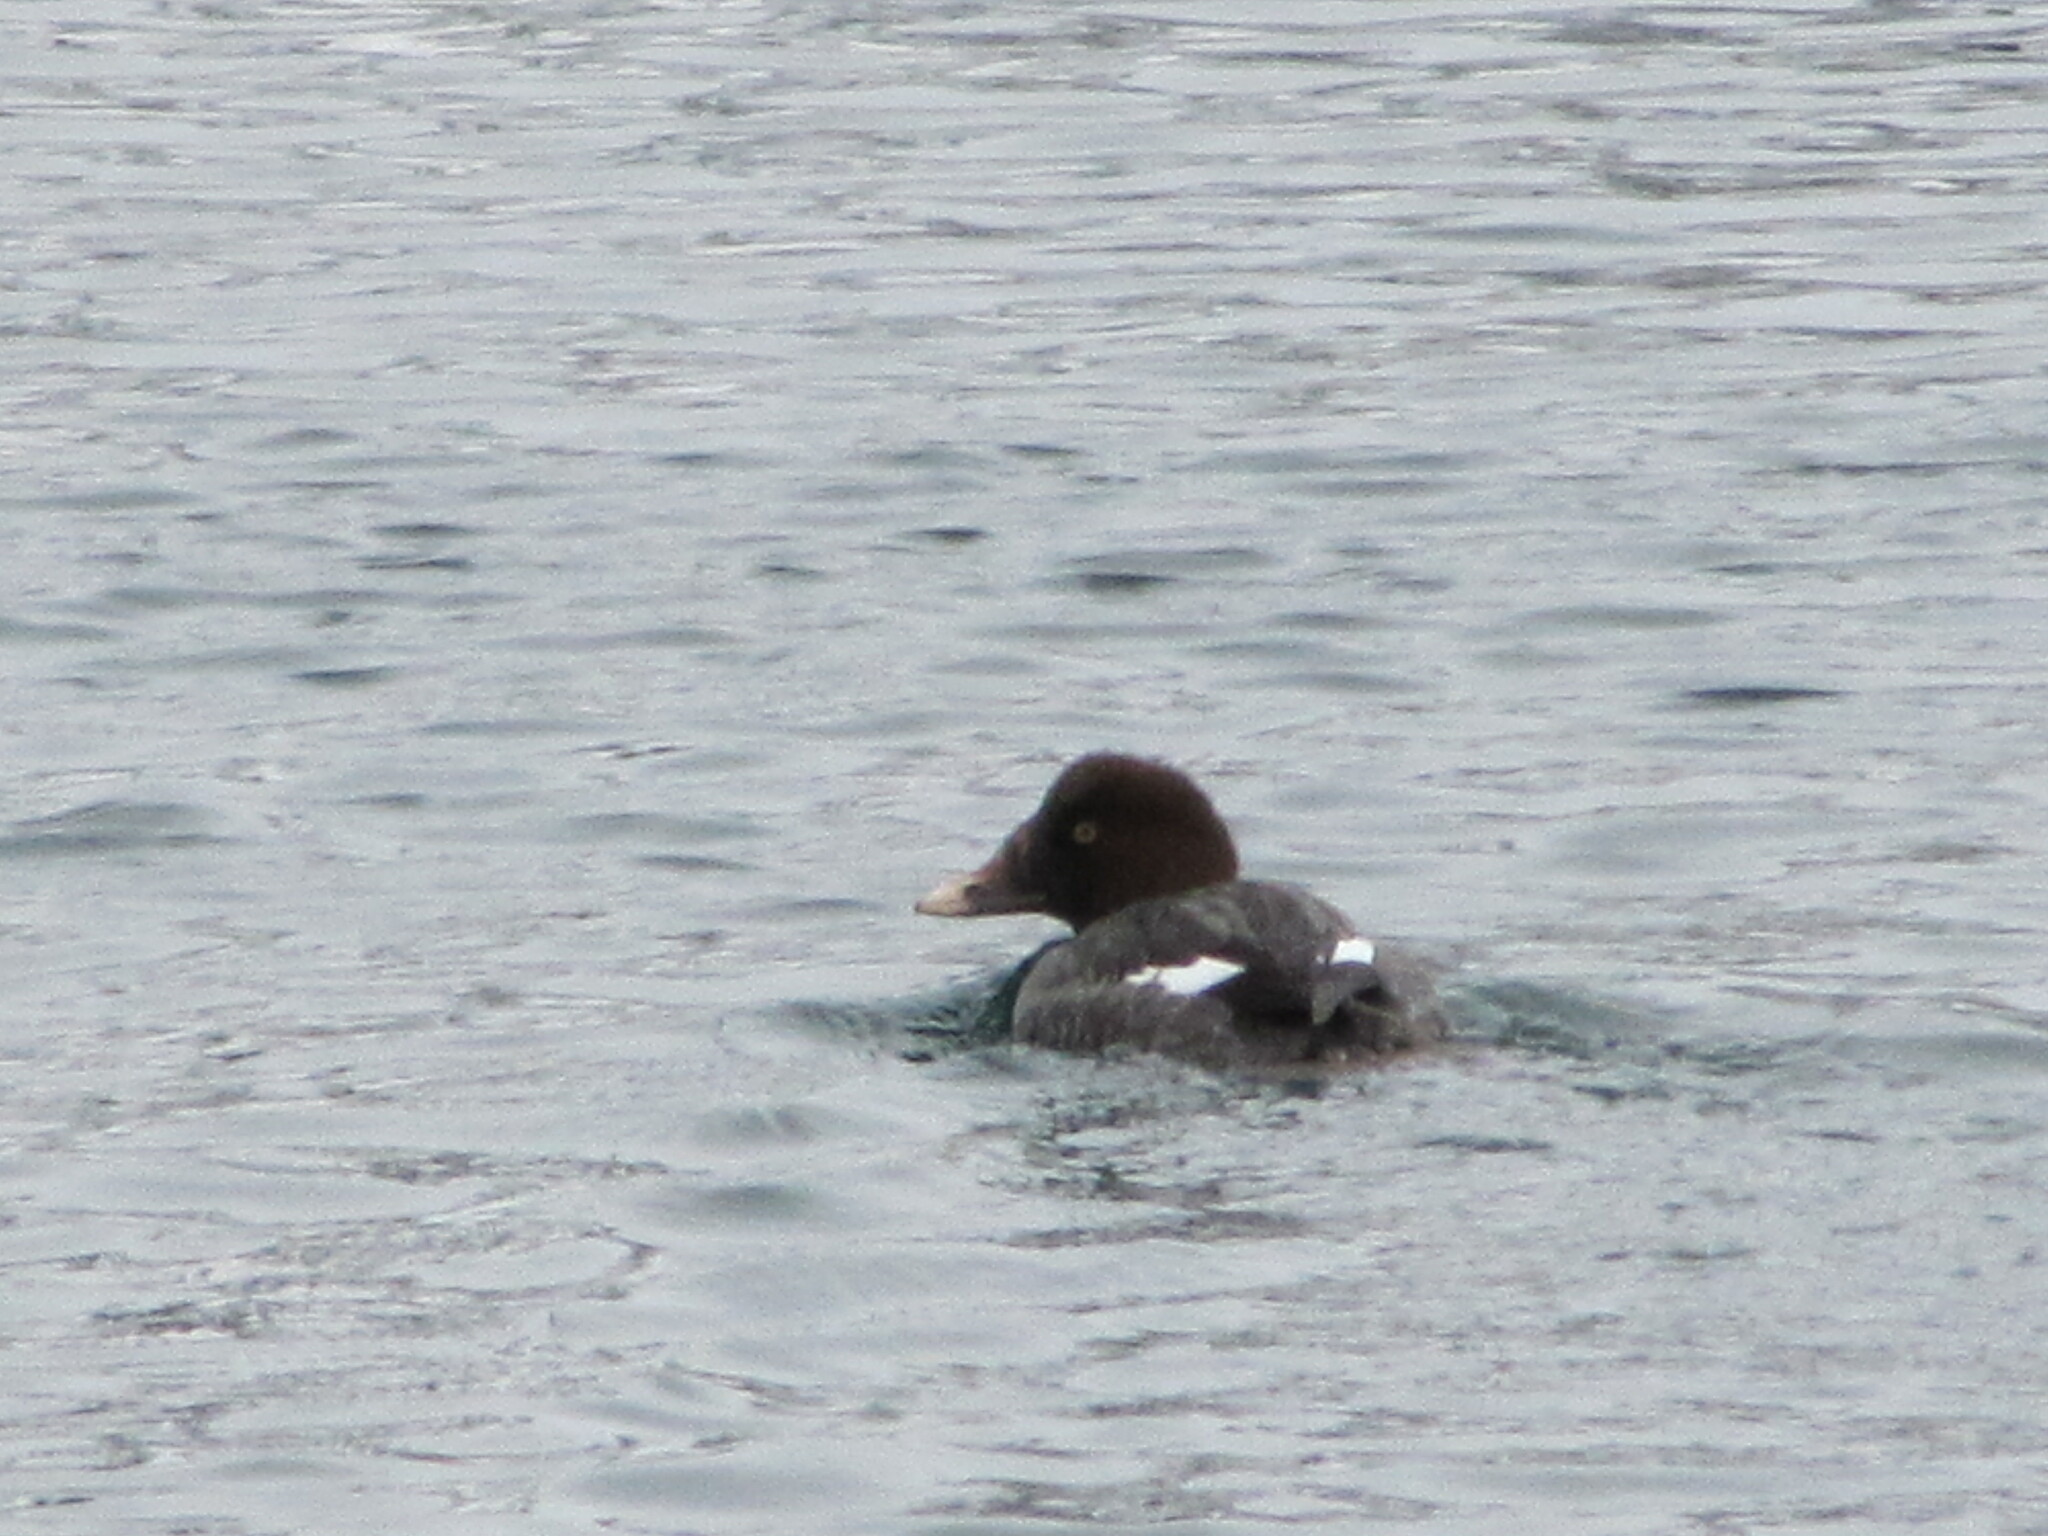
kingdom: Animalia
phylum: Chordata
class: Aves
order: Anseriformes
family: Anatidae
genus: Bucephala
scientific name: Bucephala clangula
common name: Common goldeneye
